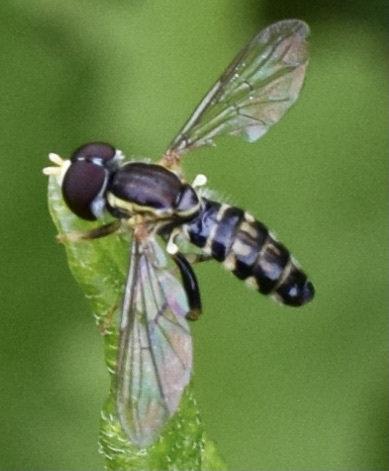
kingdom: Animalia
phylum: Arthropoda
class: Insecta
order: Diptera
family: Syrphidae
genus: Toxomerus
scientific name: Toxomerus geminatus
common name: Eastern calligrapher
